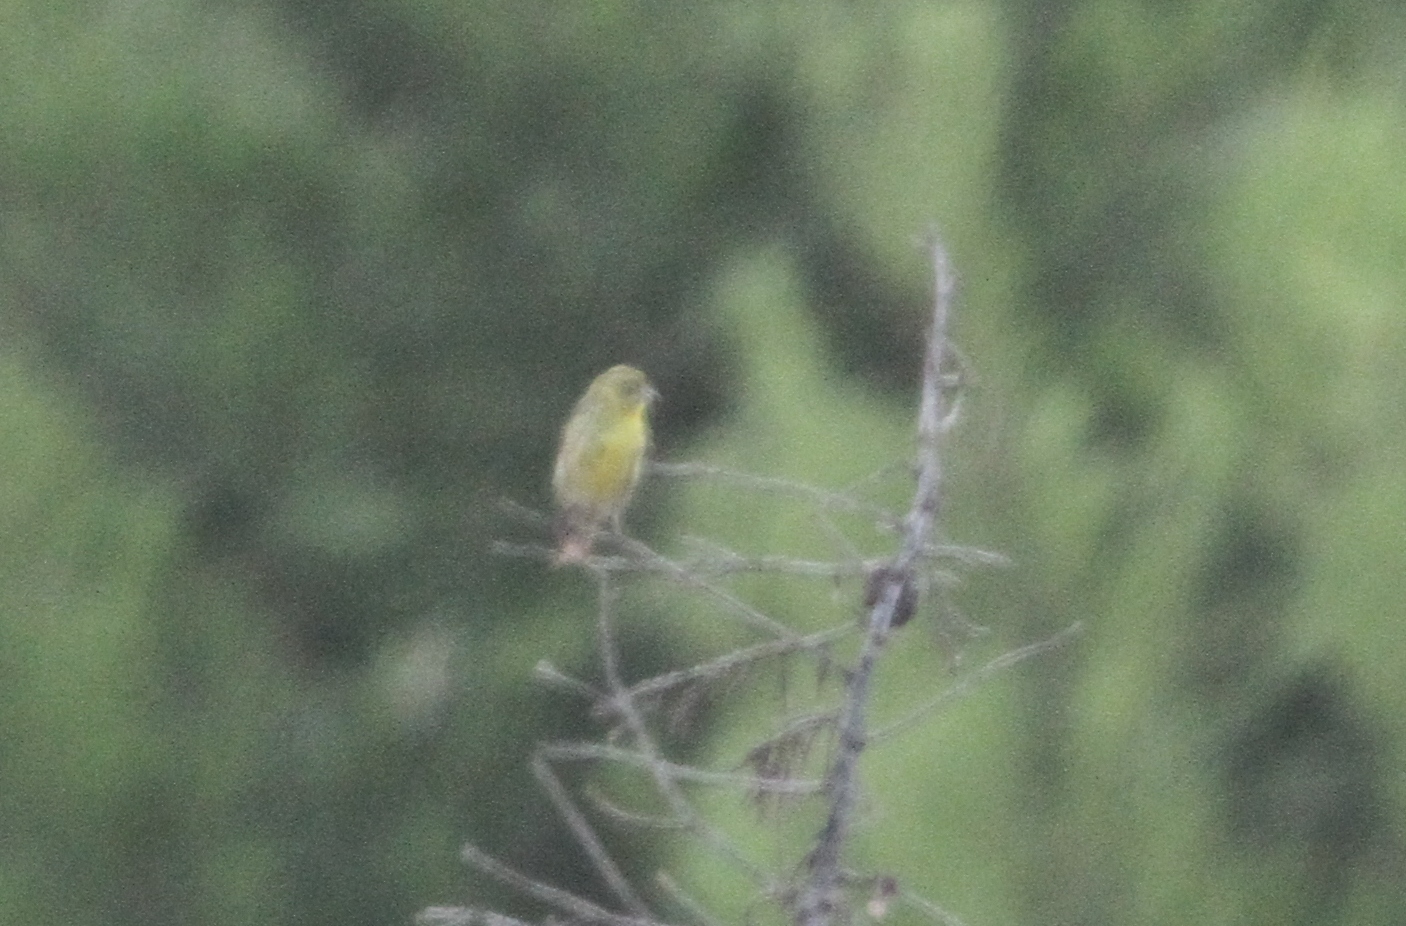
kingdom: Animalia
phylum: Chordata
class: Aves
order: Passeriformes
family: Fringillidae
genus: Serinus
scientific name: Serinus serinus
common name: European serin
